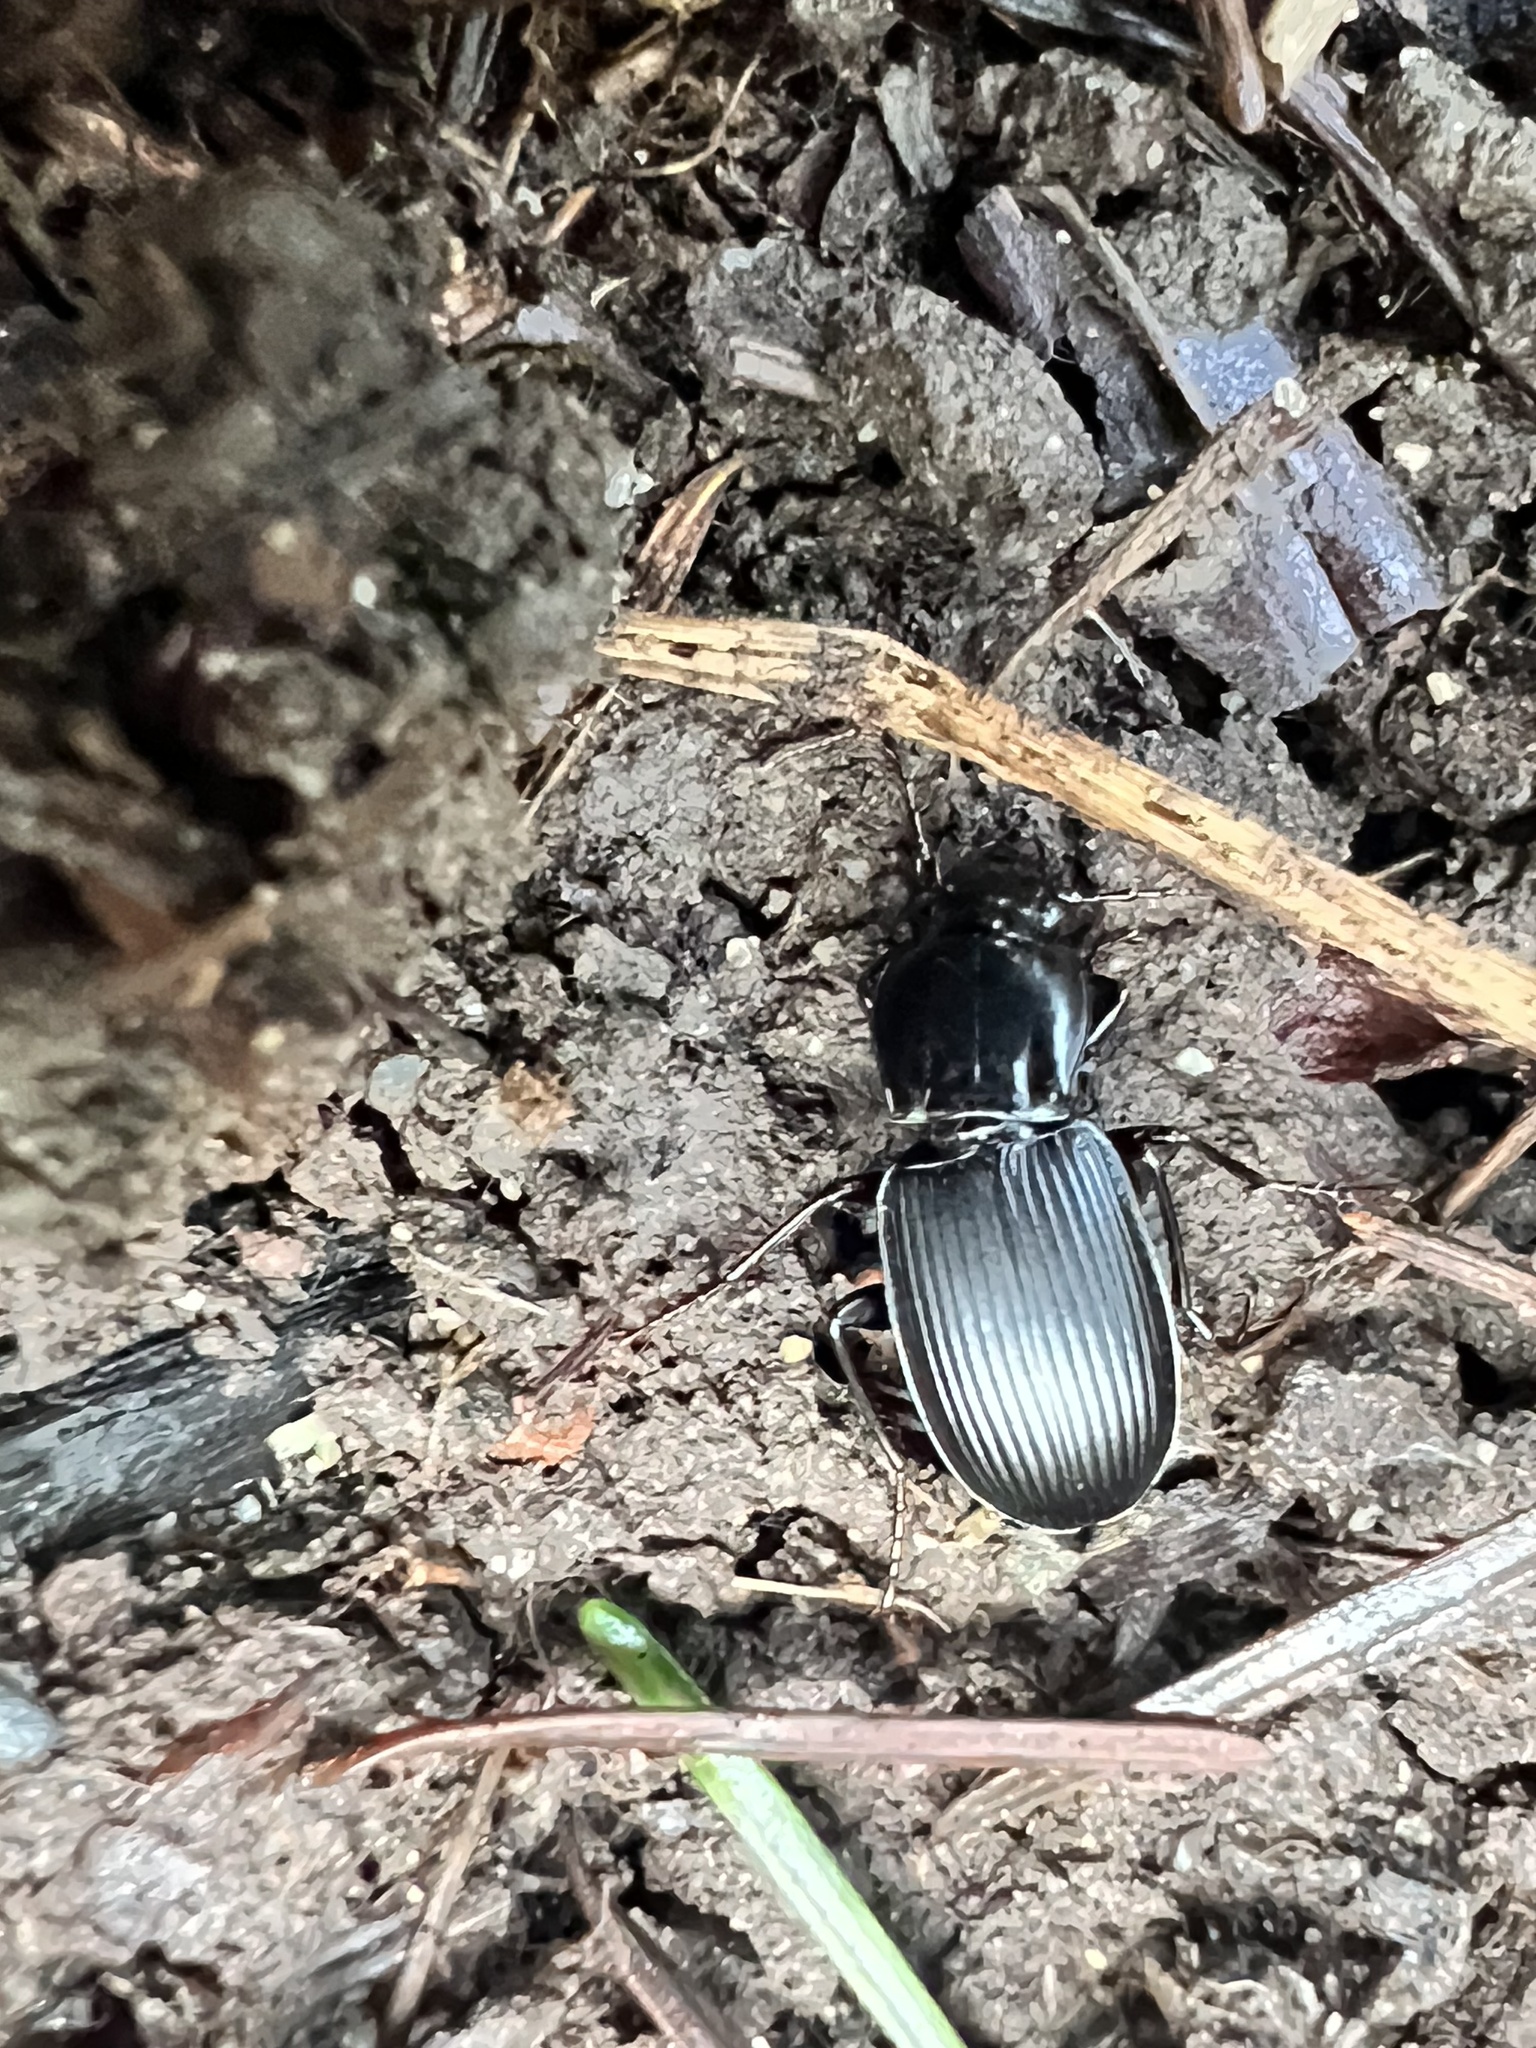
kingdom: Animalia
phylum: Arthropoda
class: Insecta
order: Coleoptera
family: Carabidae
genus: Pterostichus
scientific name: Pterostichus algidus
